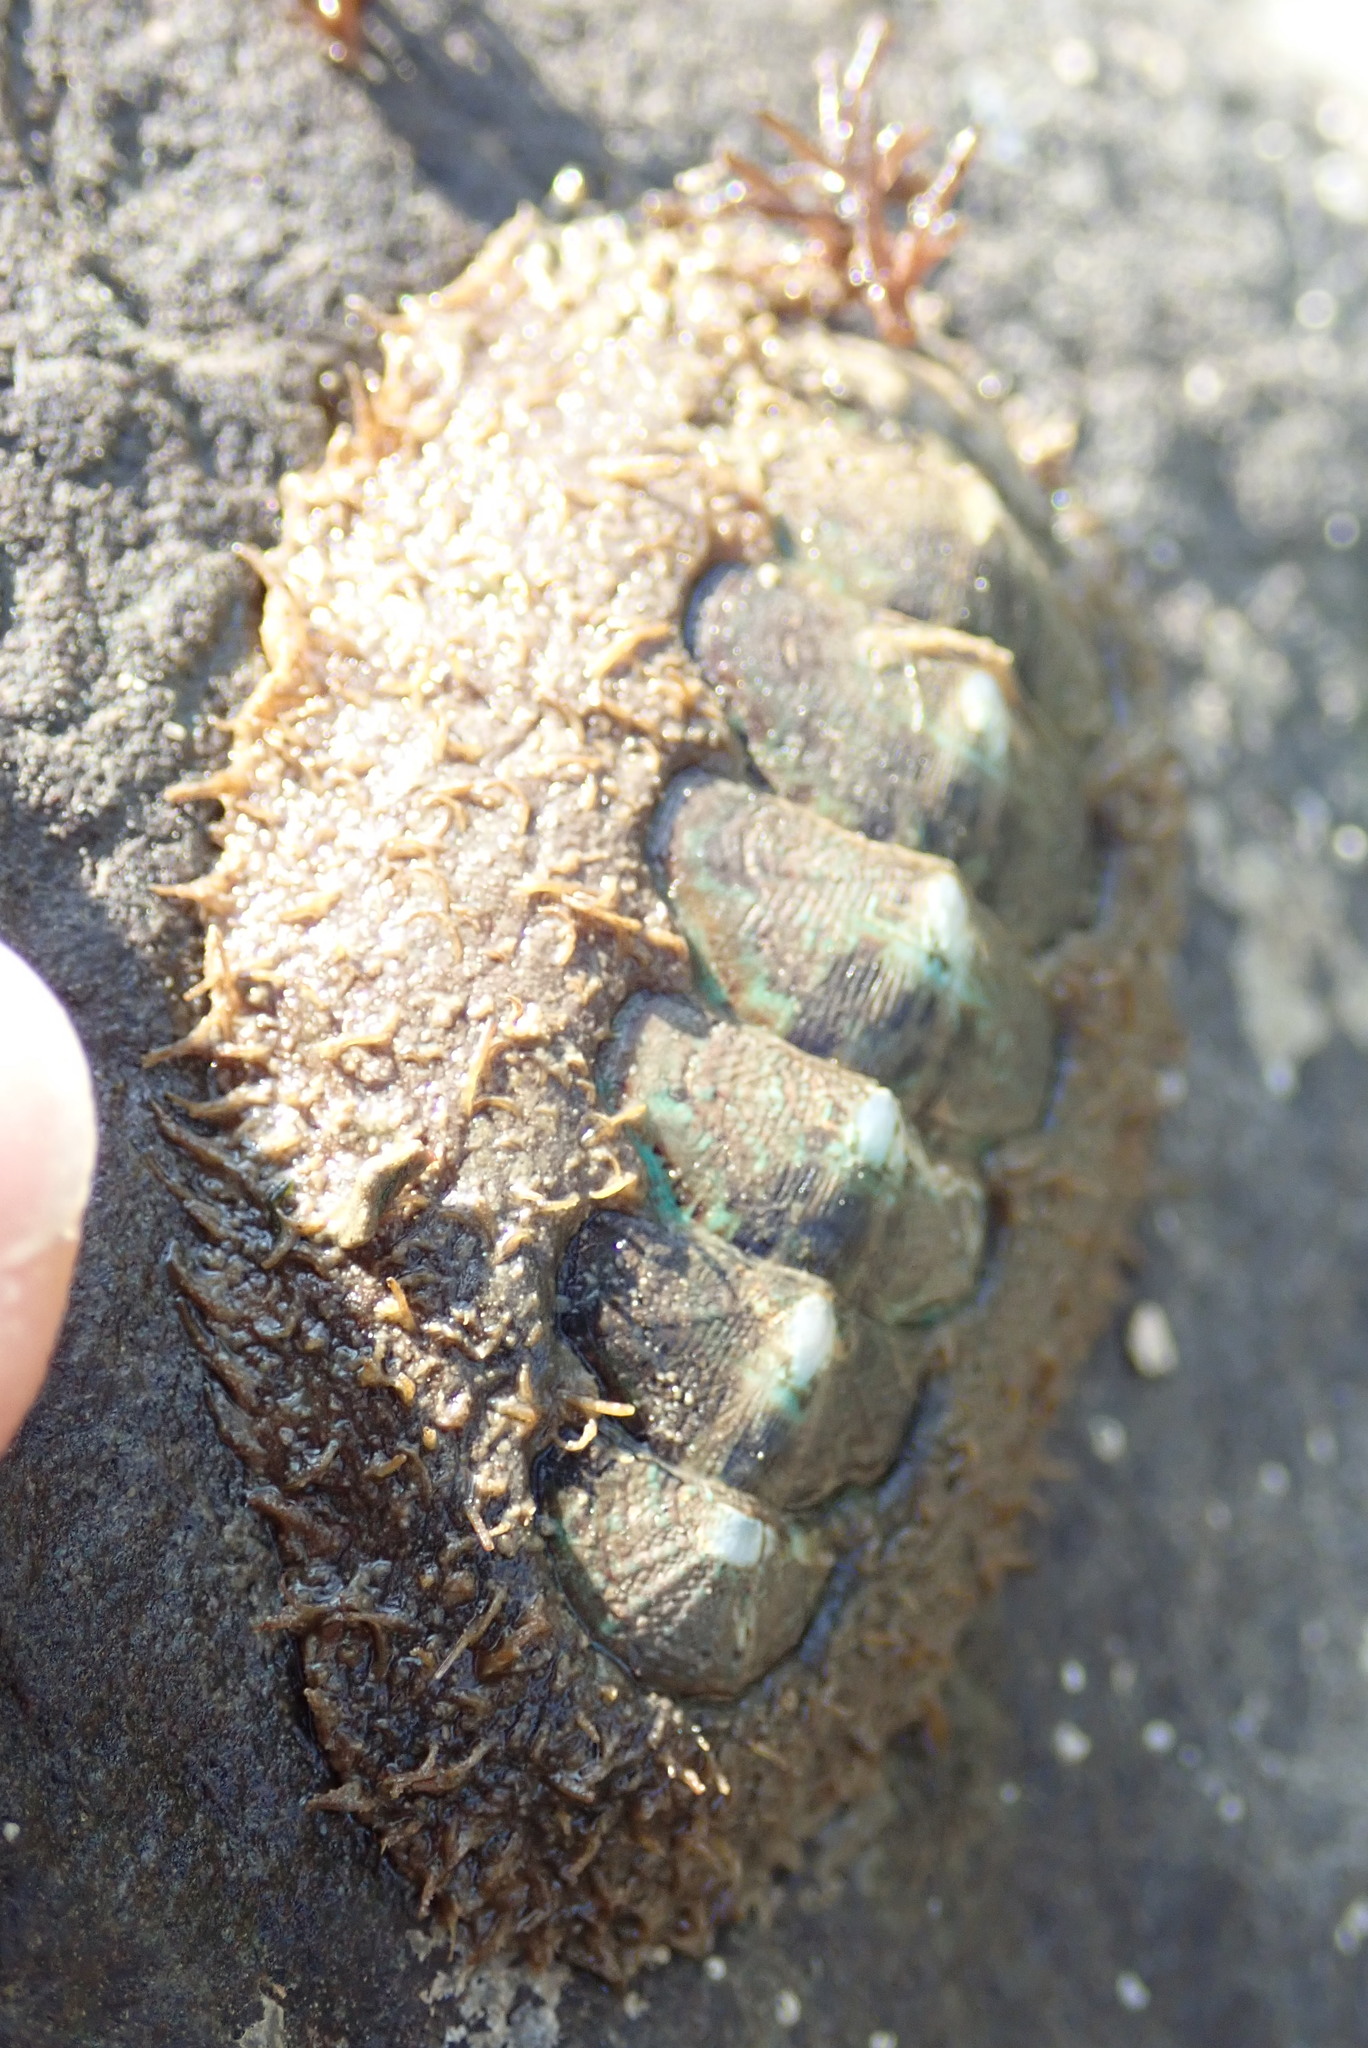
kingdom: Animalia
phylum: Mollusca
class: Polyplacophora
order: Chitonida
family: Mopaliidae
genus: Mopalia
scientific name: Mopalia spectabilis
